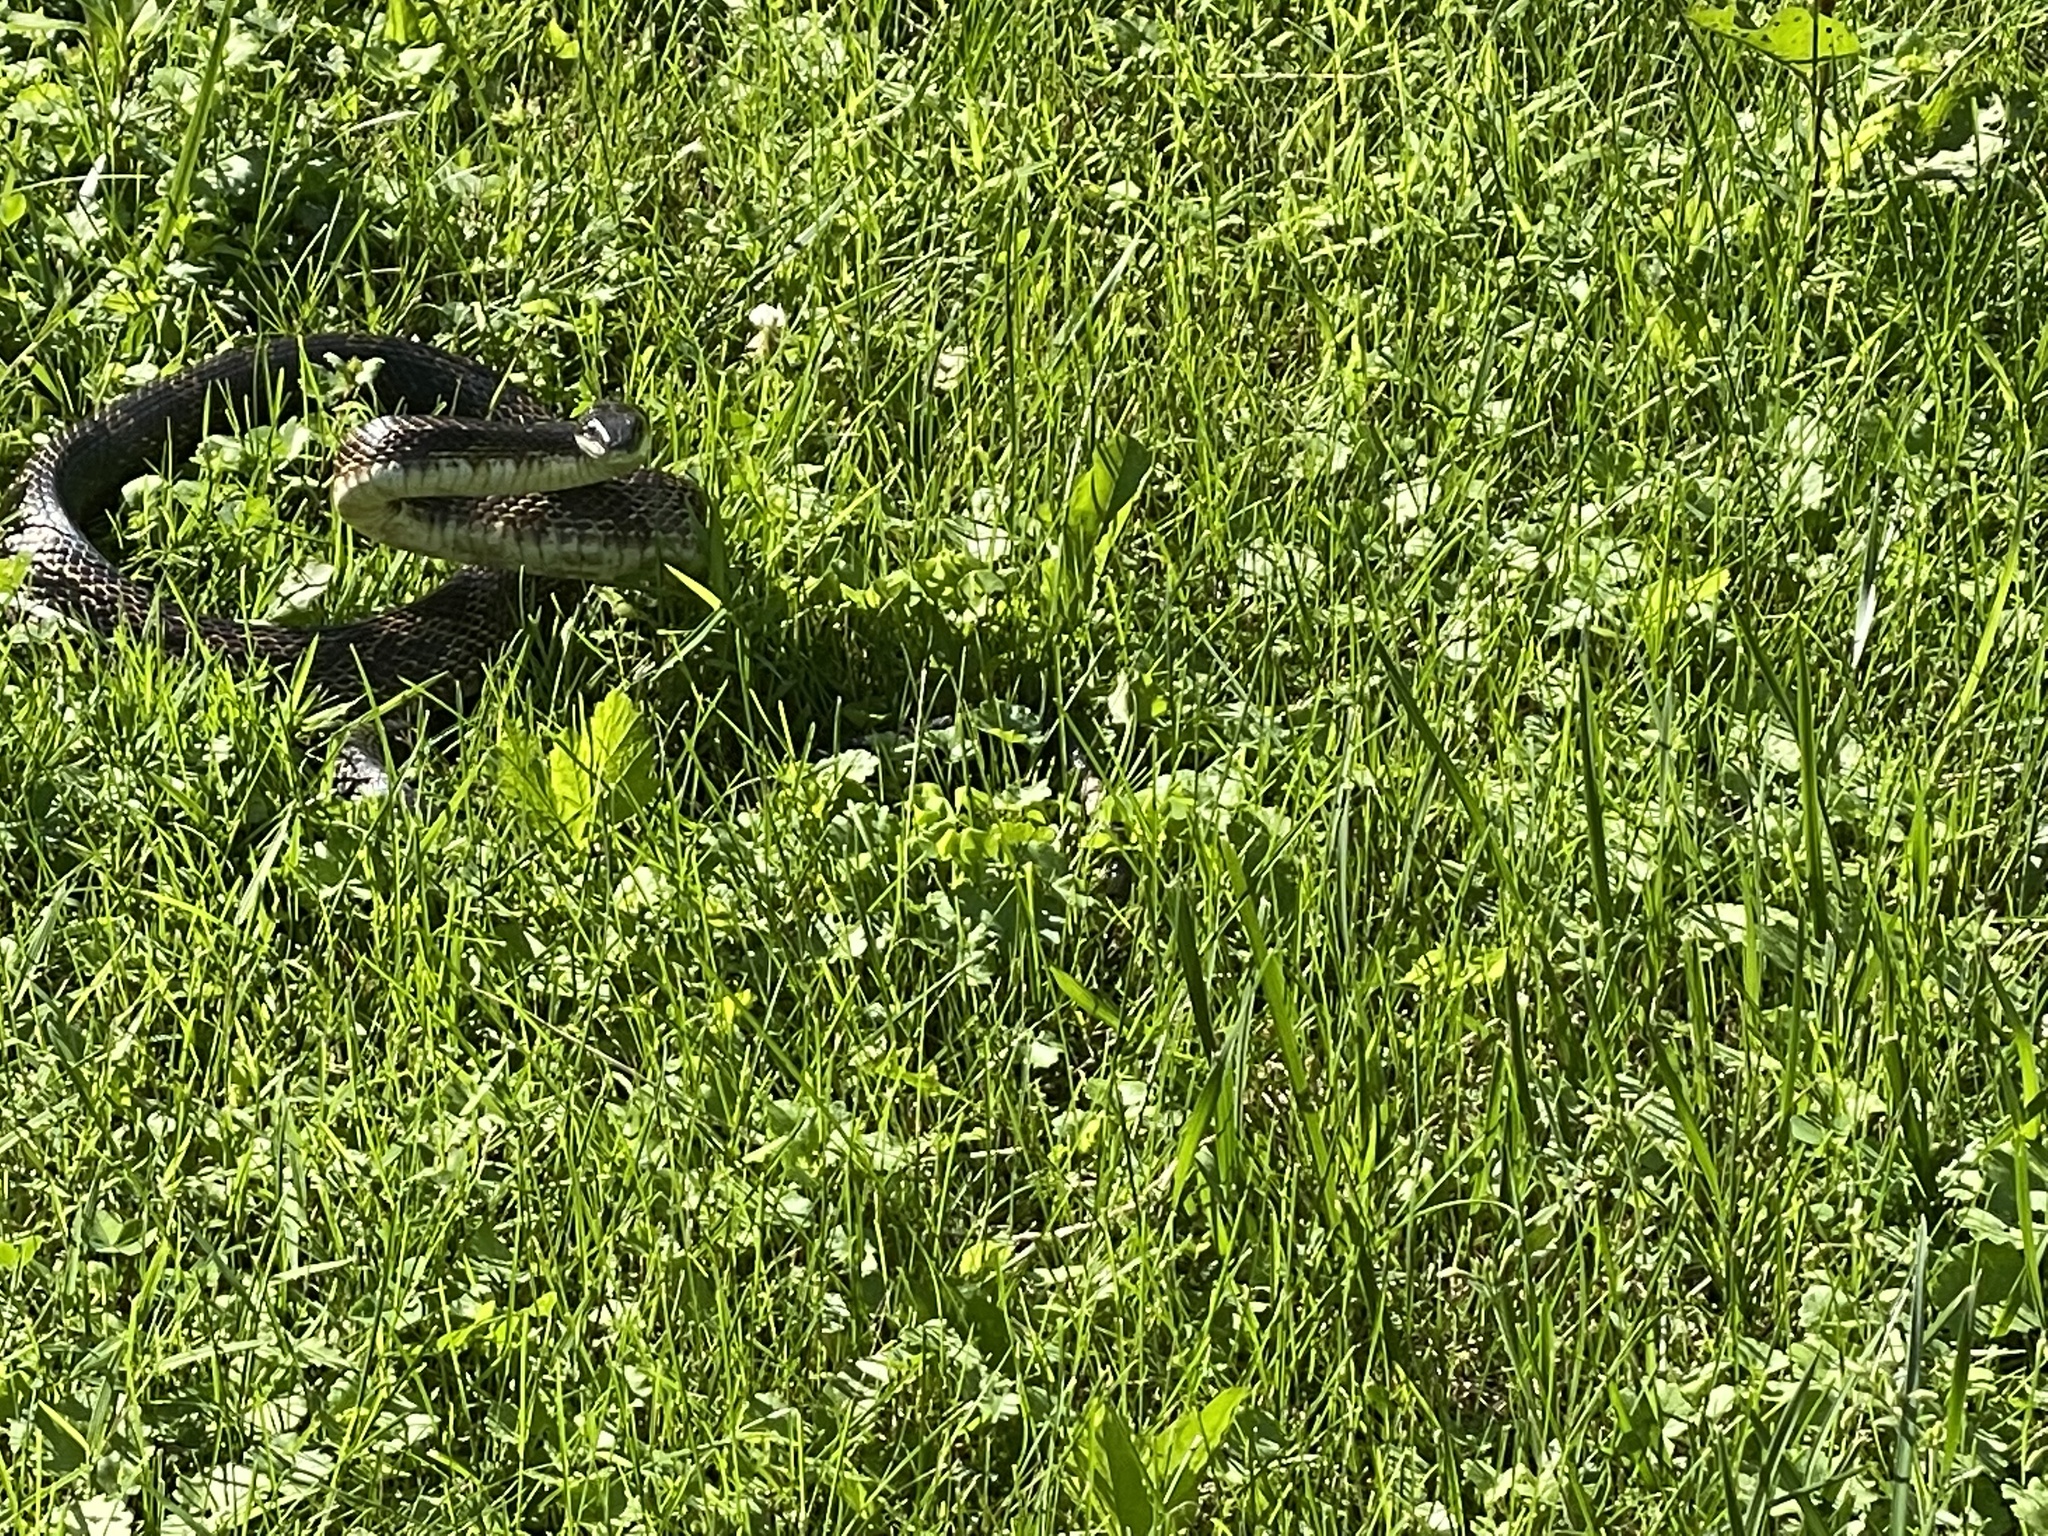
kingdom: Animalia
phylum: Chordata
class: Squamata
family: Colubridae
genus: Pantherophis
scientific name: Pantherophis spiloides
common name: Gray rat snake
